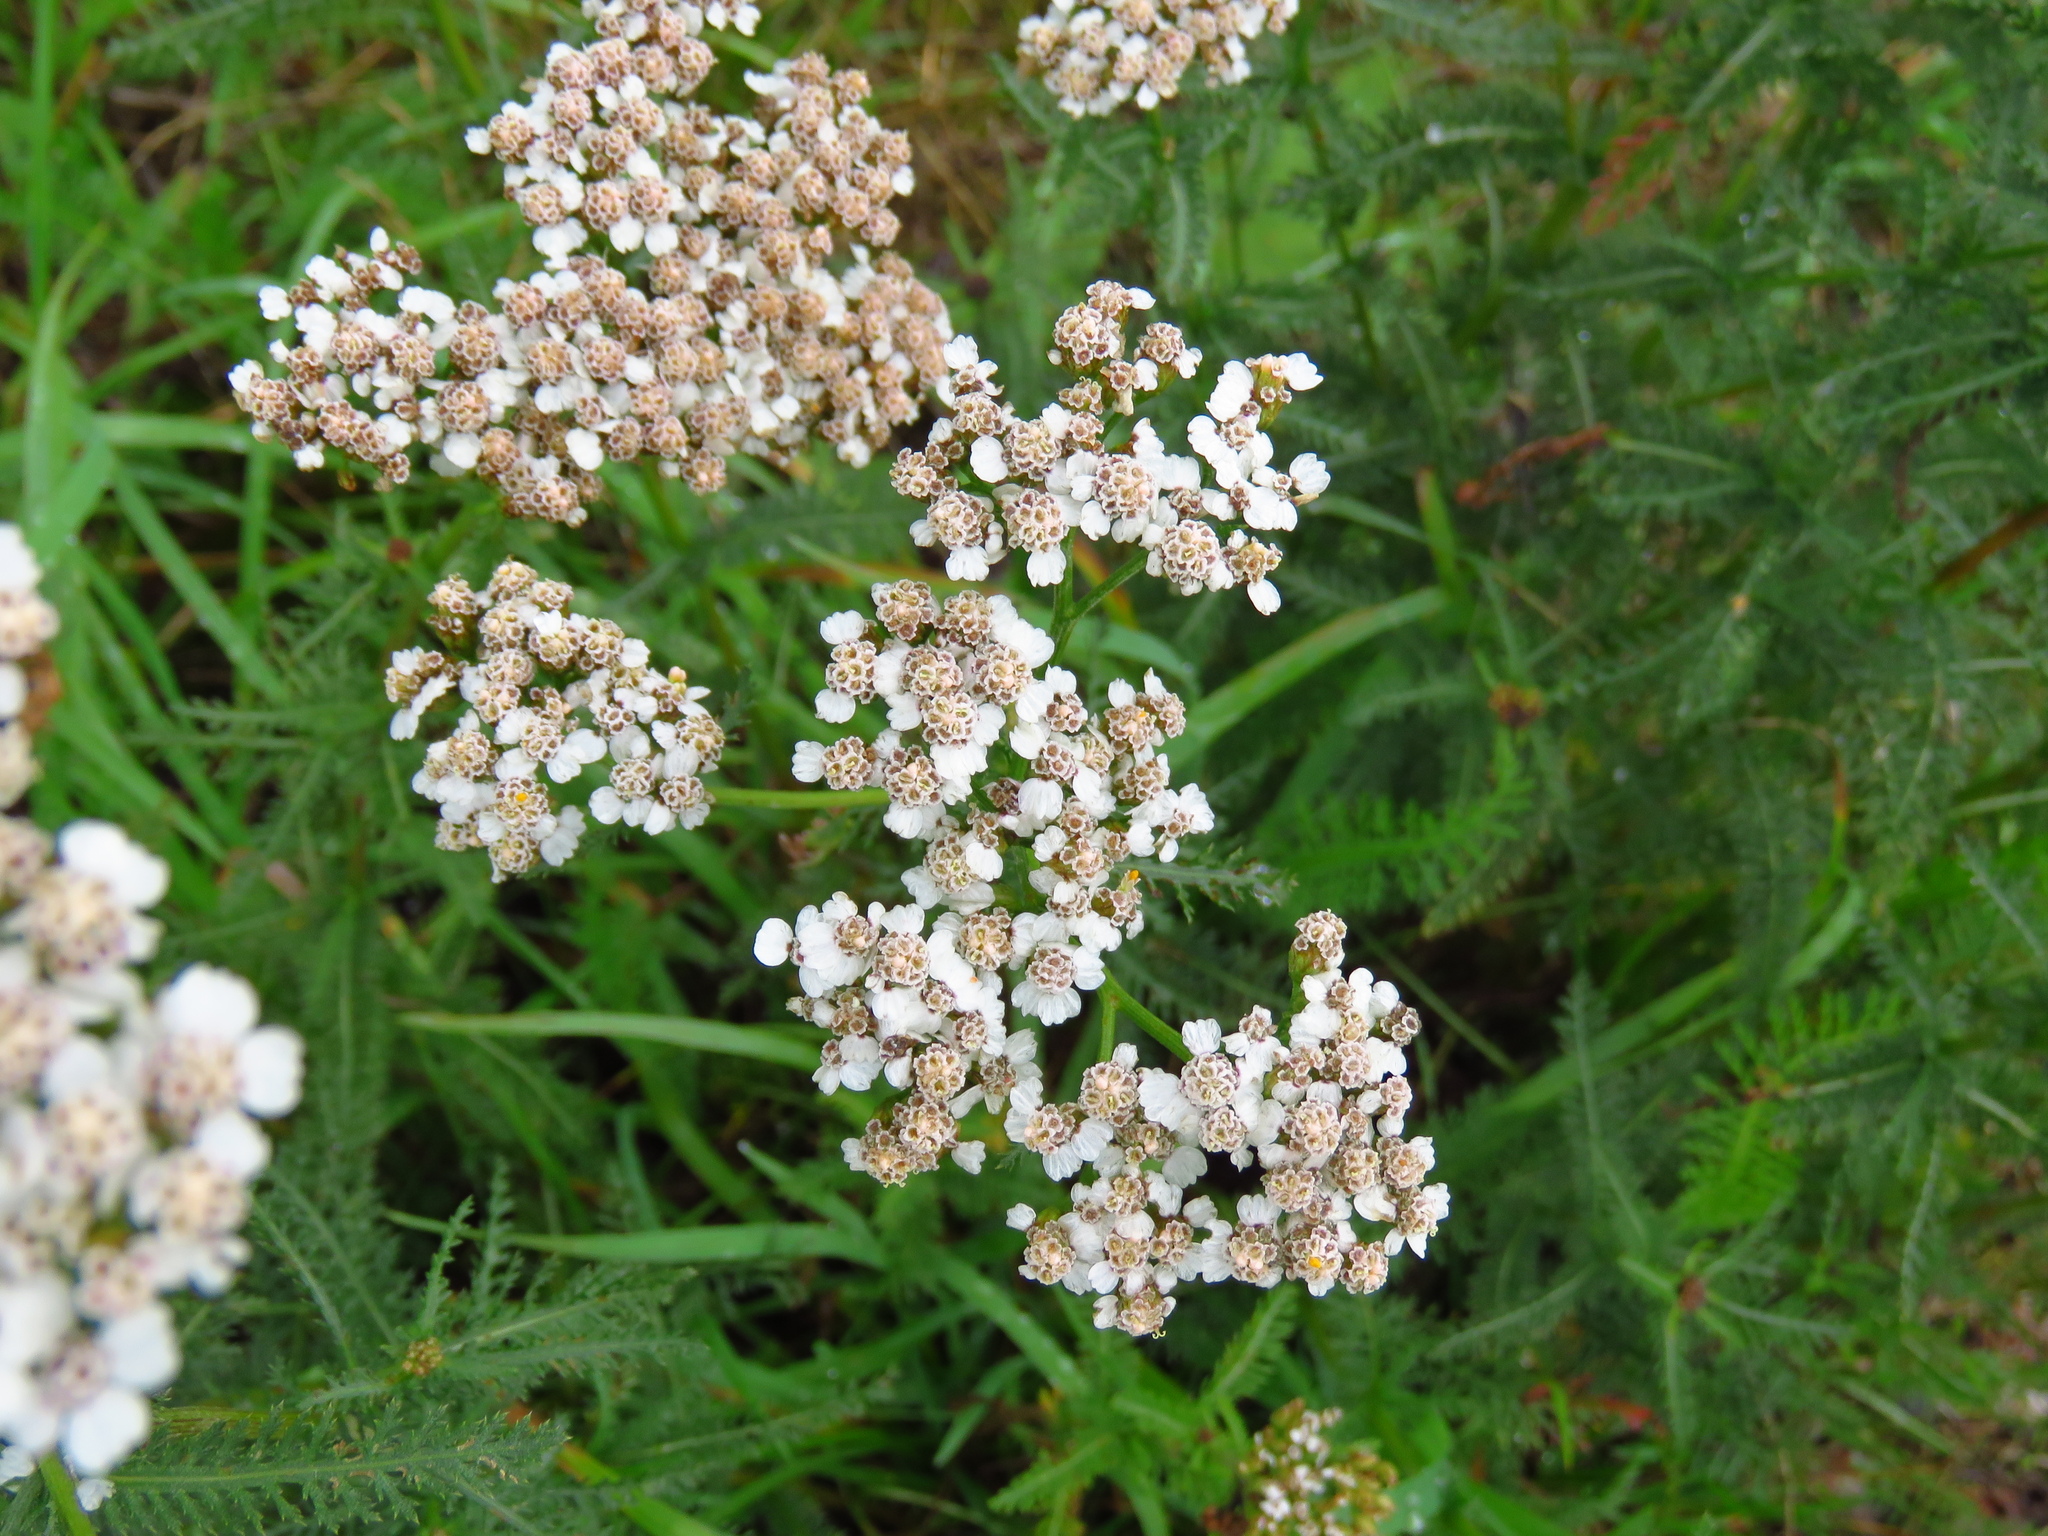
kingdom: Plantae
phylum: Tracheophyta
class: Magnoliopsida
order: Asterales
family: Asteraceae
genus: Achillea
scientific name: Achillea millefolium
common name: Yarrow
